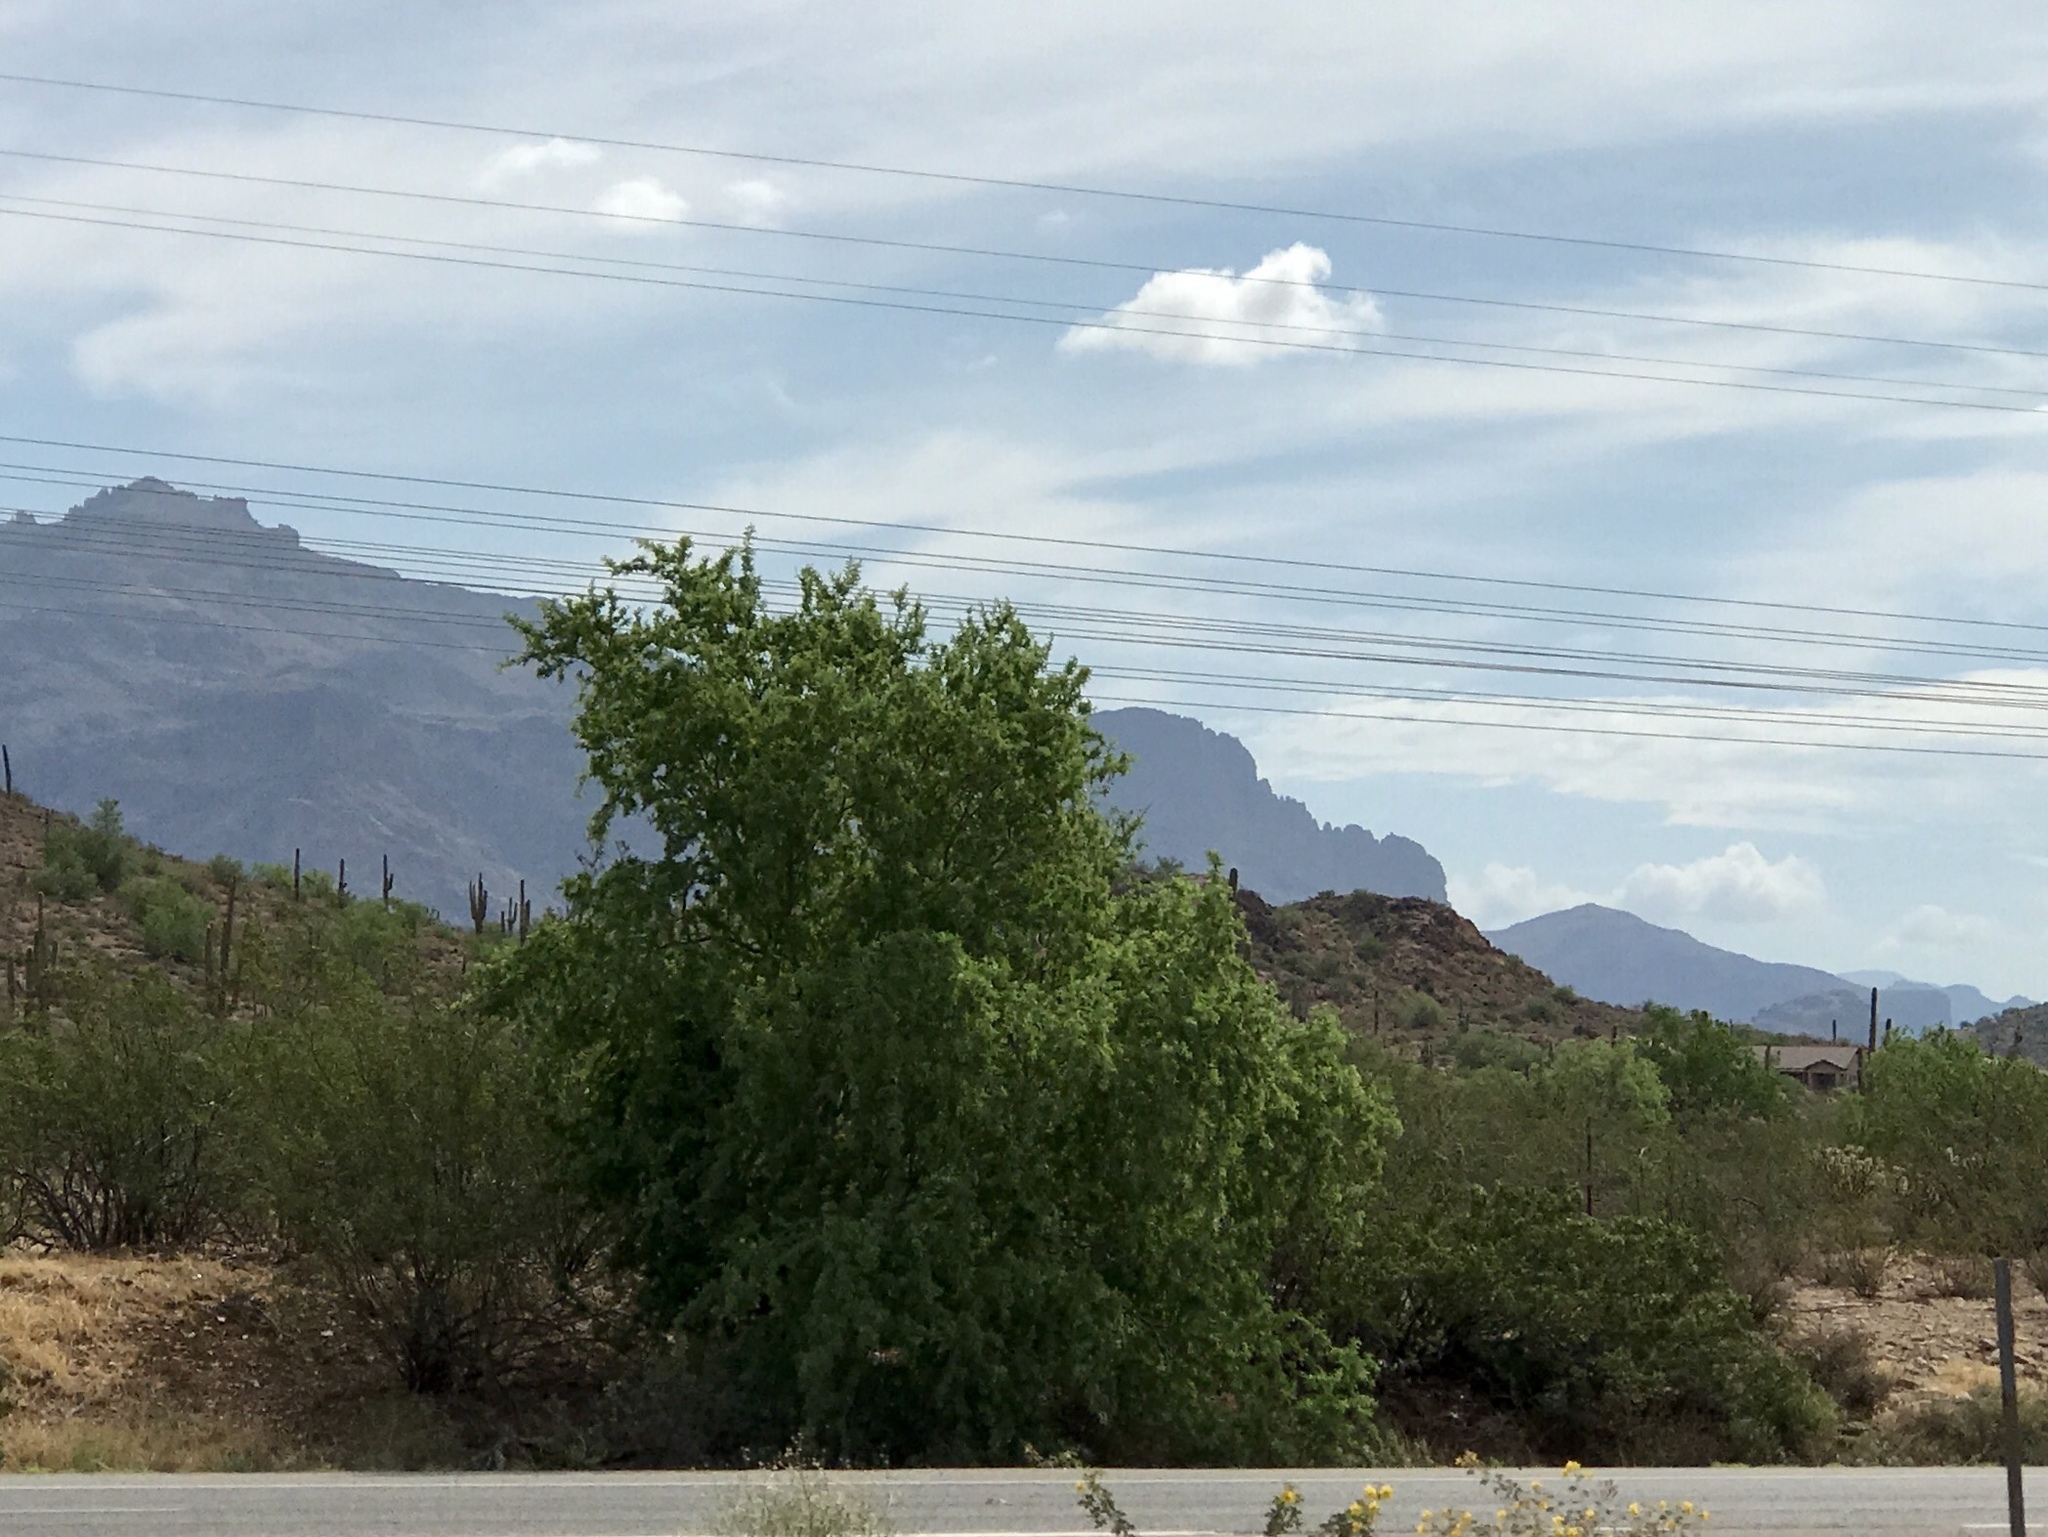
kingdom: Plantae
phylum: Tracheophyta
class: Magnoliopsida
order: Proteales
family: Platanaceae
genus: Platanus
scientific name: Platanus wrightii
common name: Arizona sycamore
